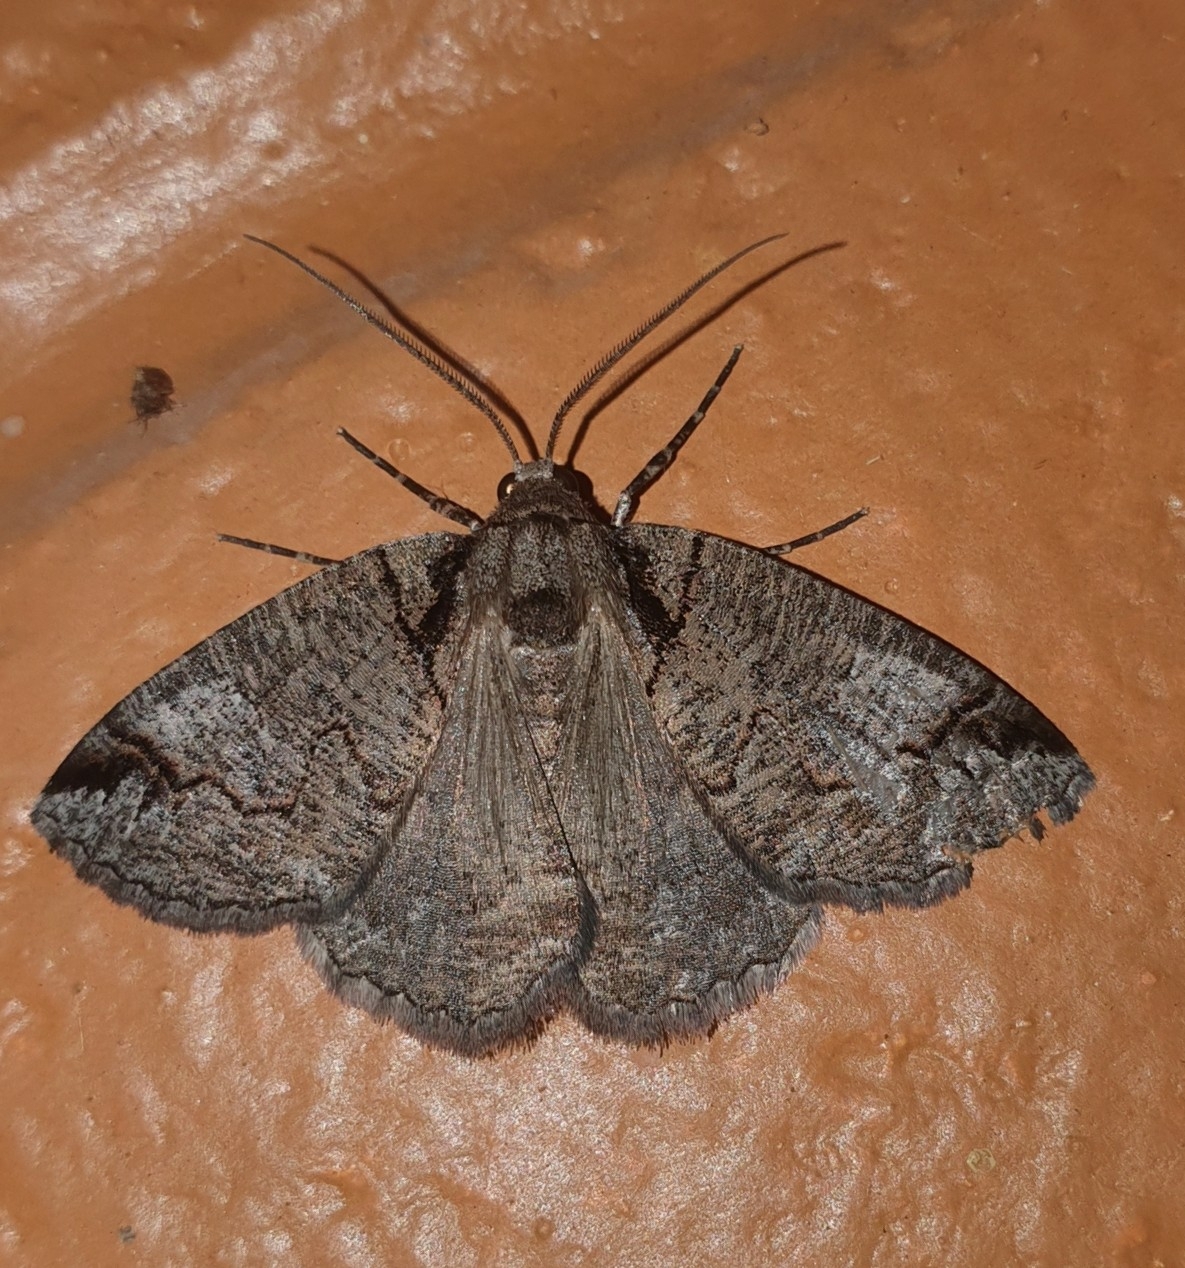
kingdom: Animalia
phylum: Arthropoda
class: Insecta
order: Lepidoptera
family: Geometridae
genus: Austroterpna
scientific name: Austroterpna paratorna
